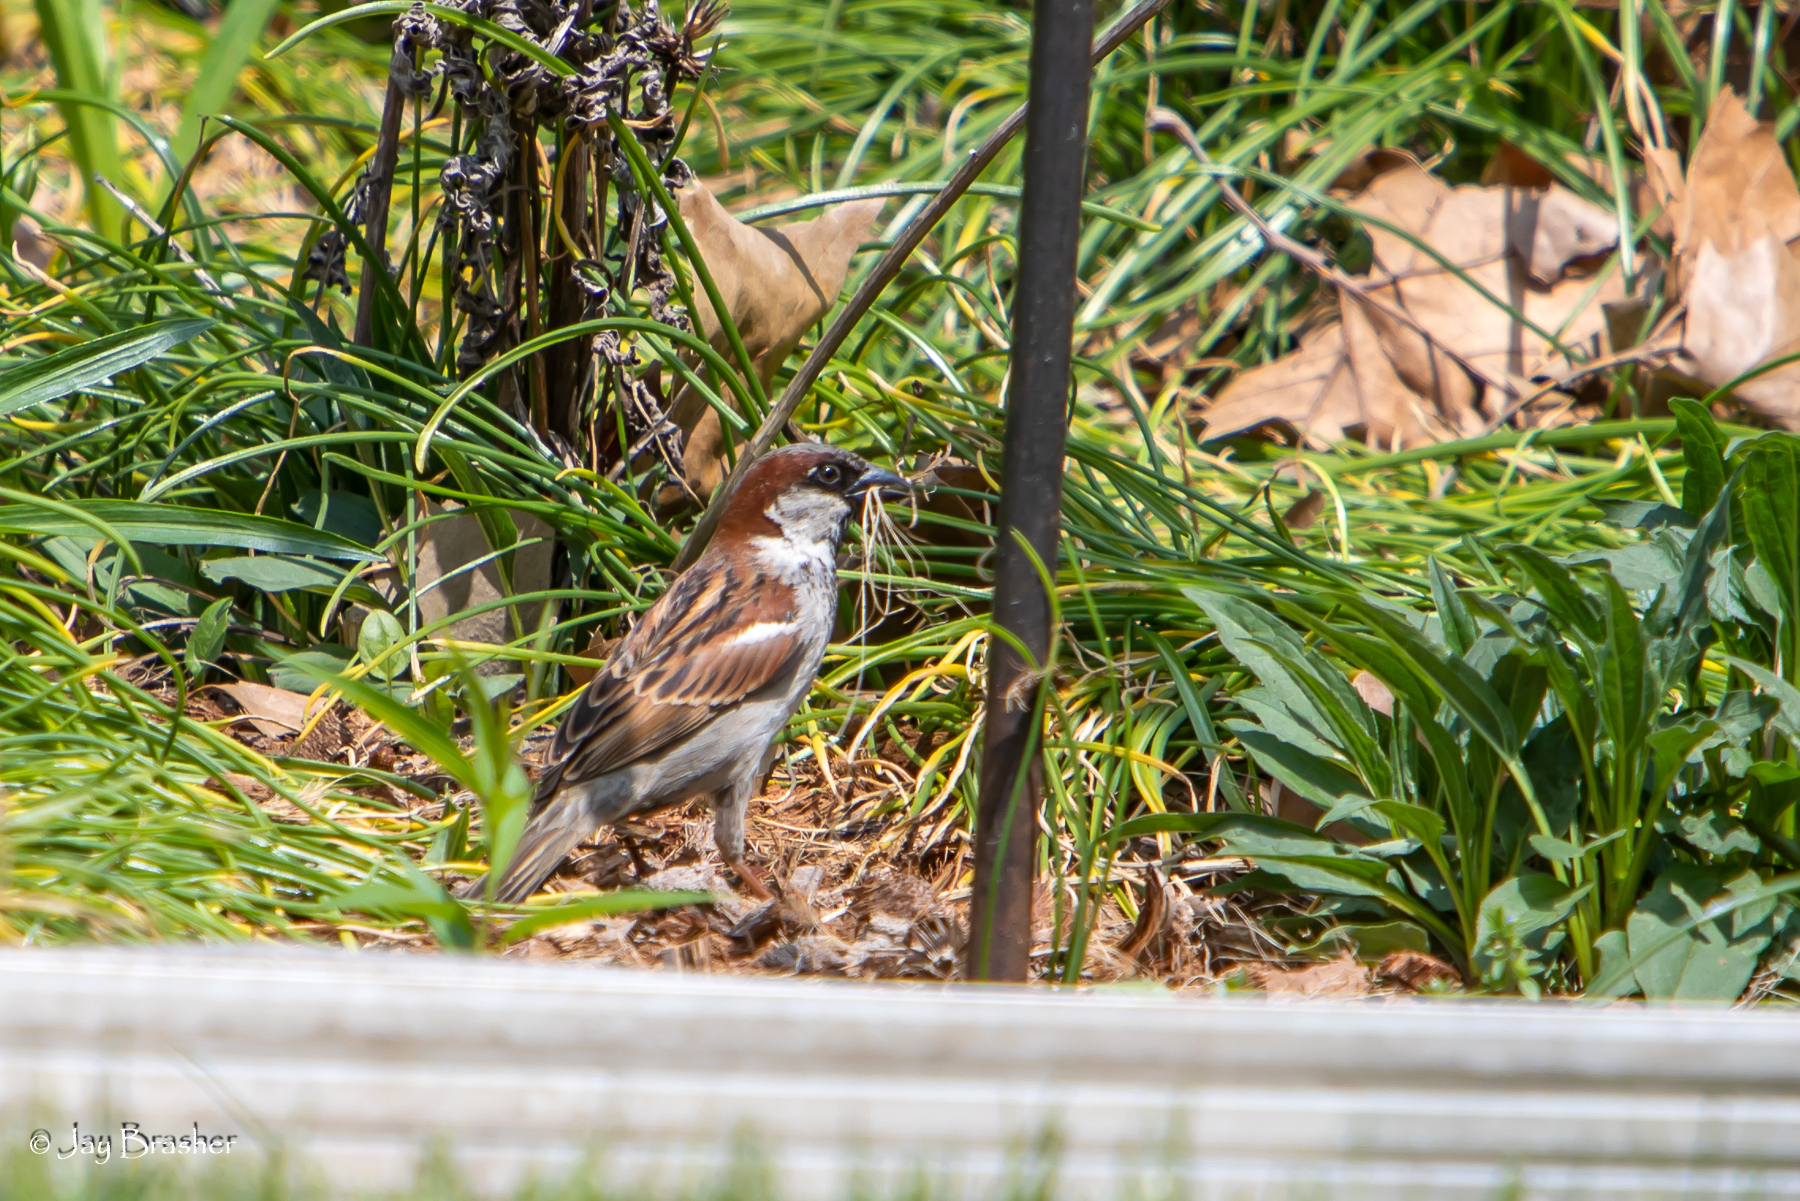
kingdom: Animalia
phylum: Chordata
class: Aves
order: Passeriformes
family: Passeridae
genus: Passer
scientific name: Passer domesticus
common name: House sparrow
